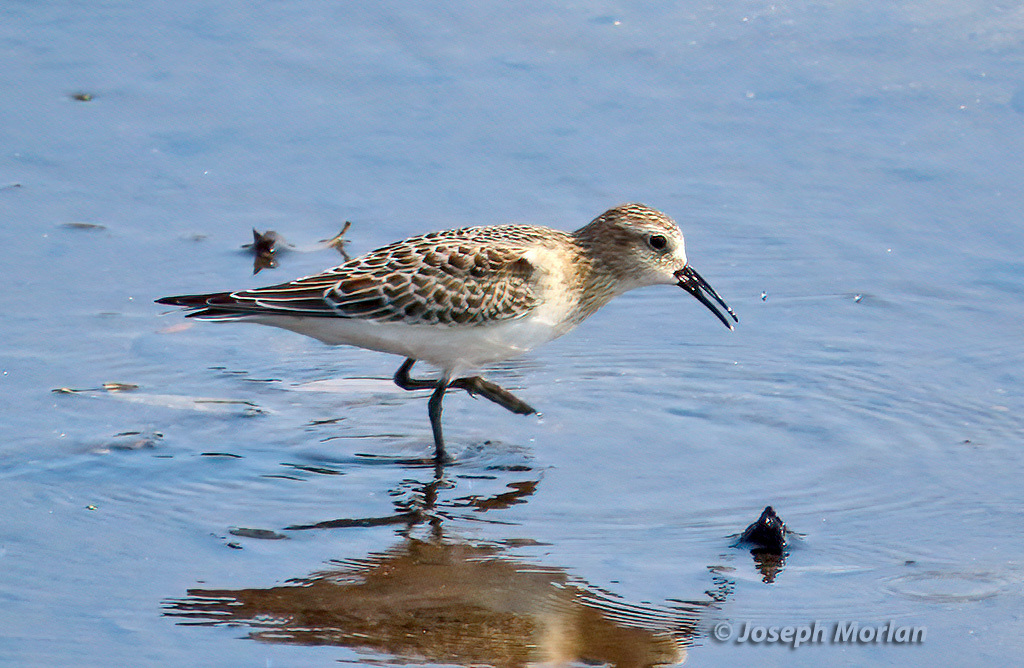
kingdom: Animalia
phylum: Chordata
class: Aves
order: Charadriiformes
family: Scolopacidae
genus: Calidris
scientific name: Calidris bairdii
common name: Baird's sandpiper
